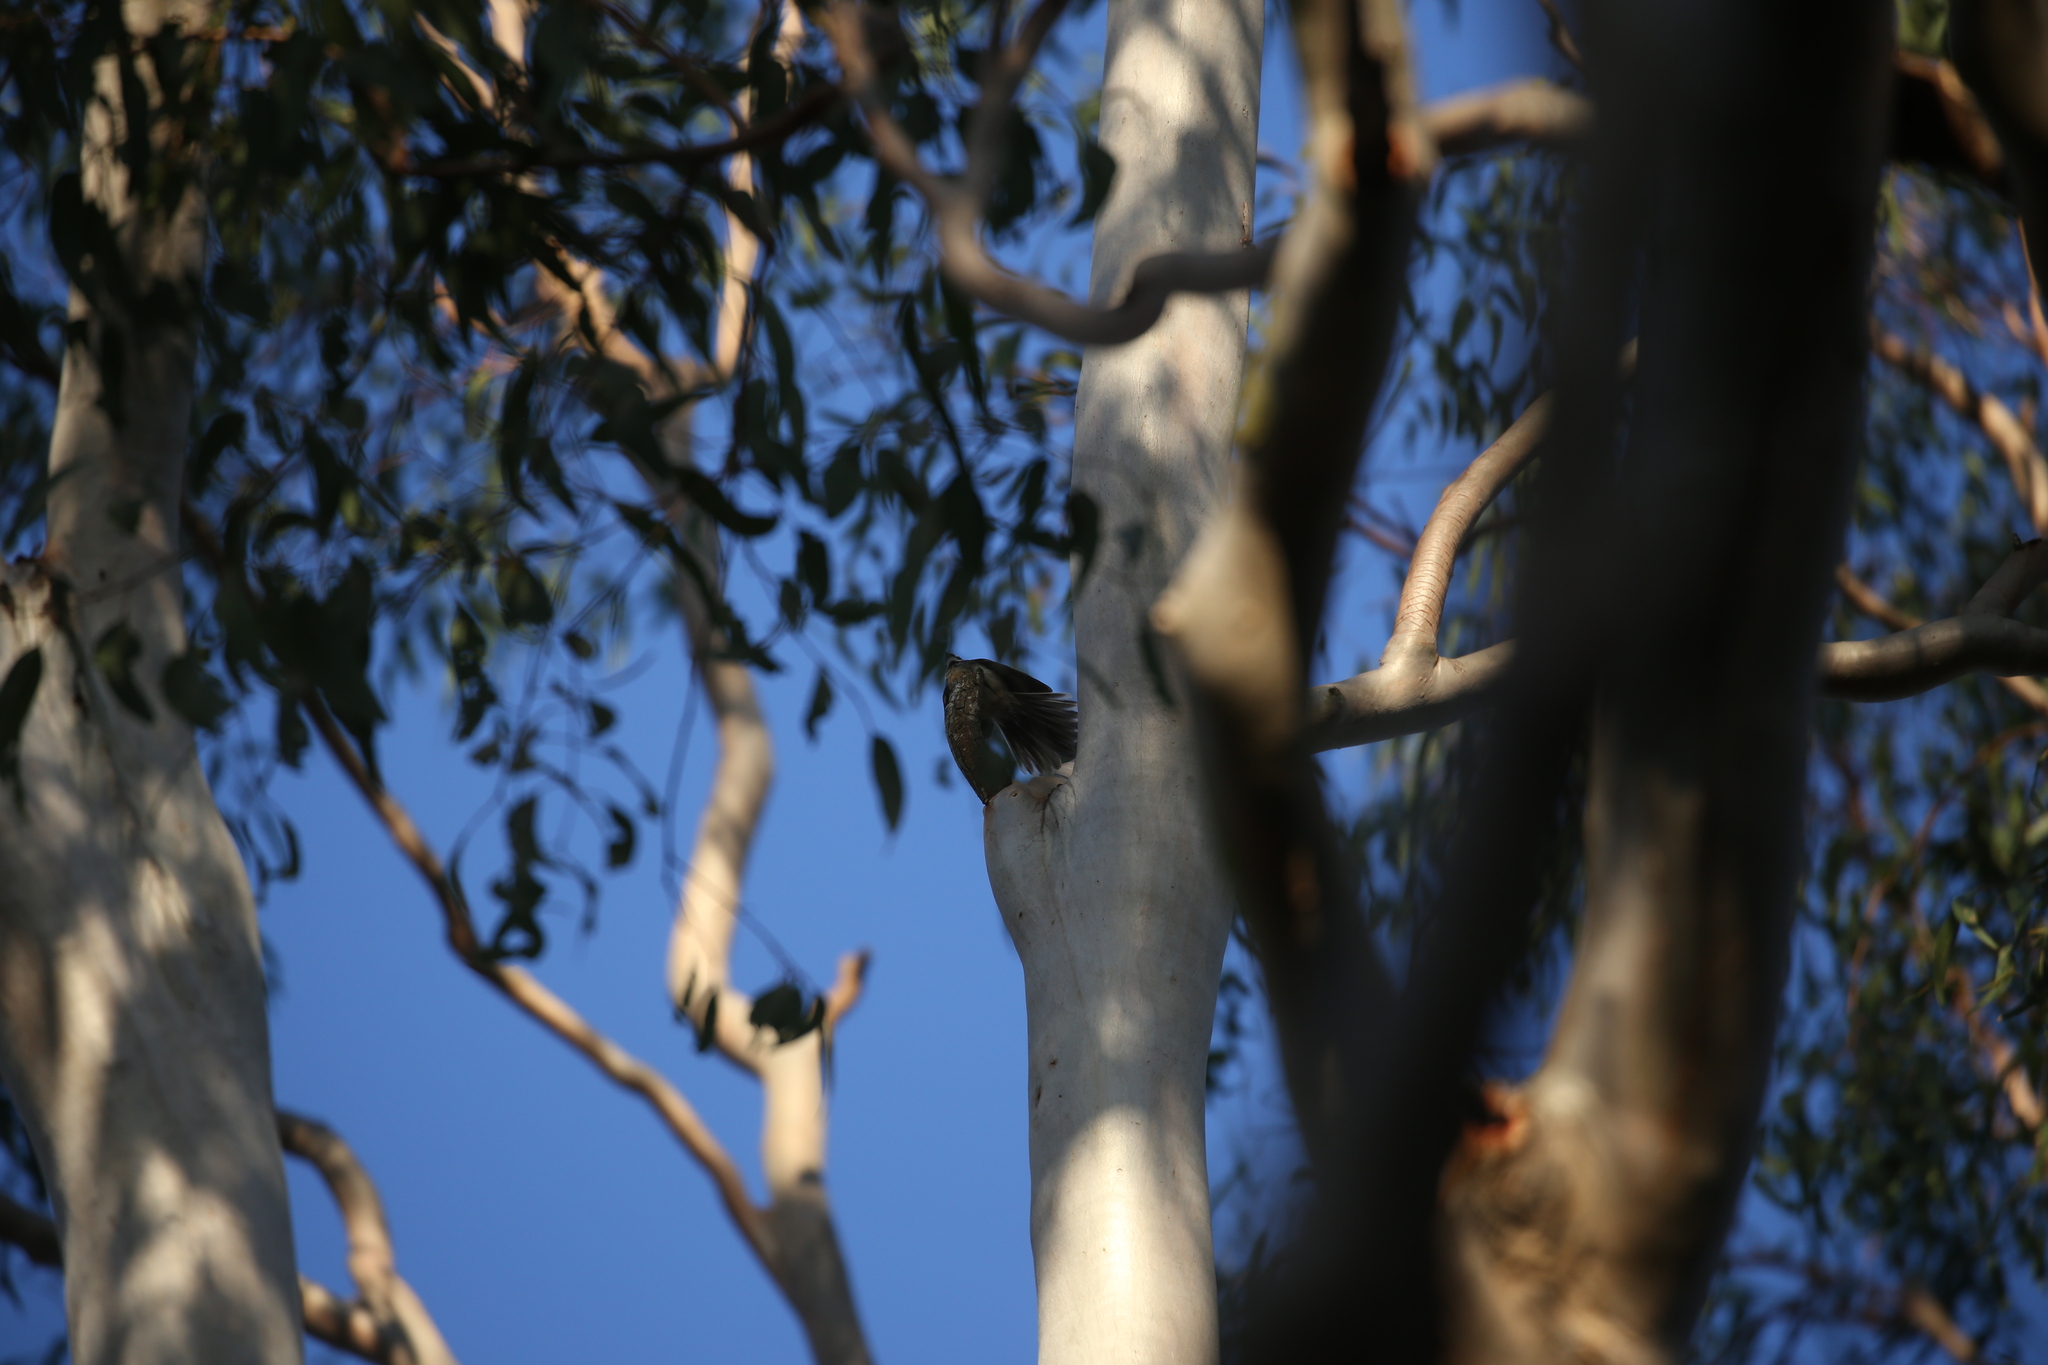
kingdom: Animalia
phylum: Chordata
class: Aves
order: Passeriformes
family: Rhipiduridae
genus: Rhipidura
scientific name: Rhipidura albiscapa
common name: Grey fantail
